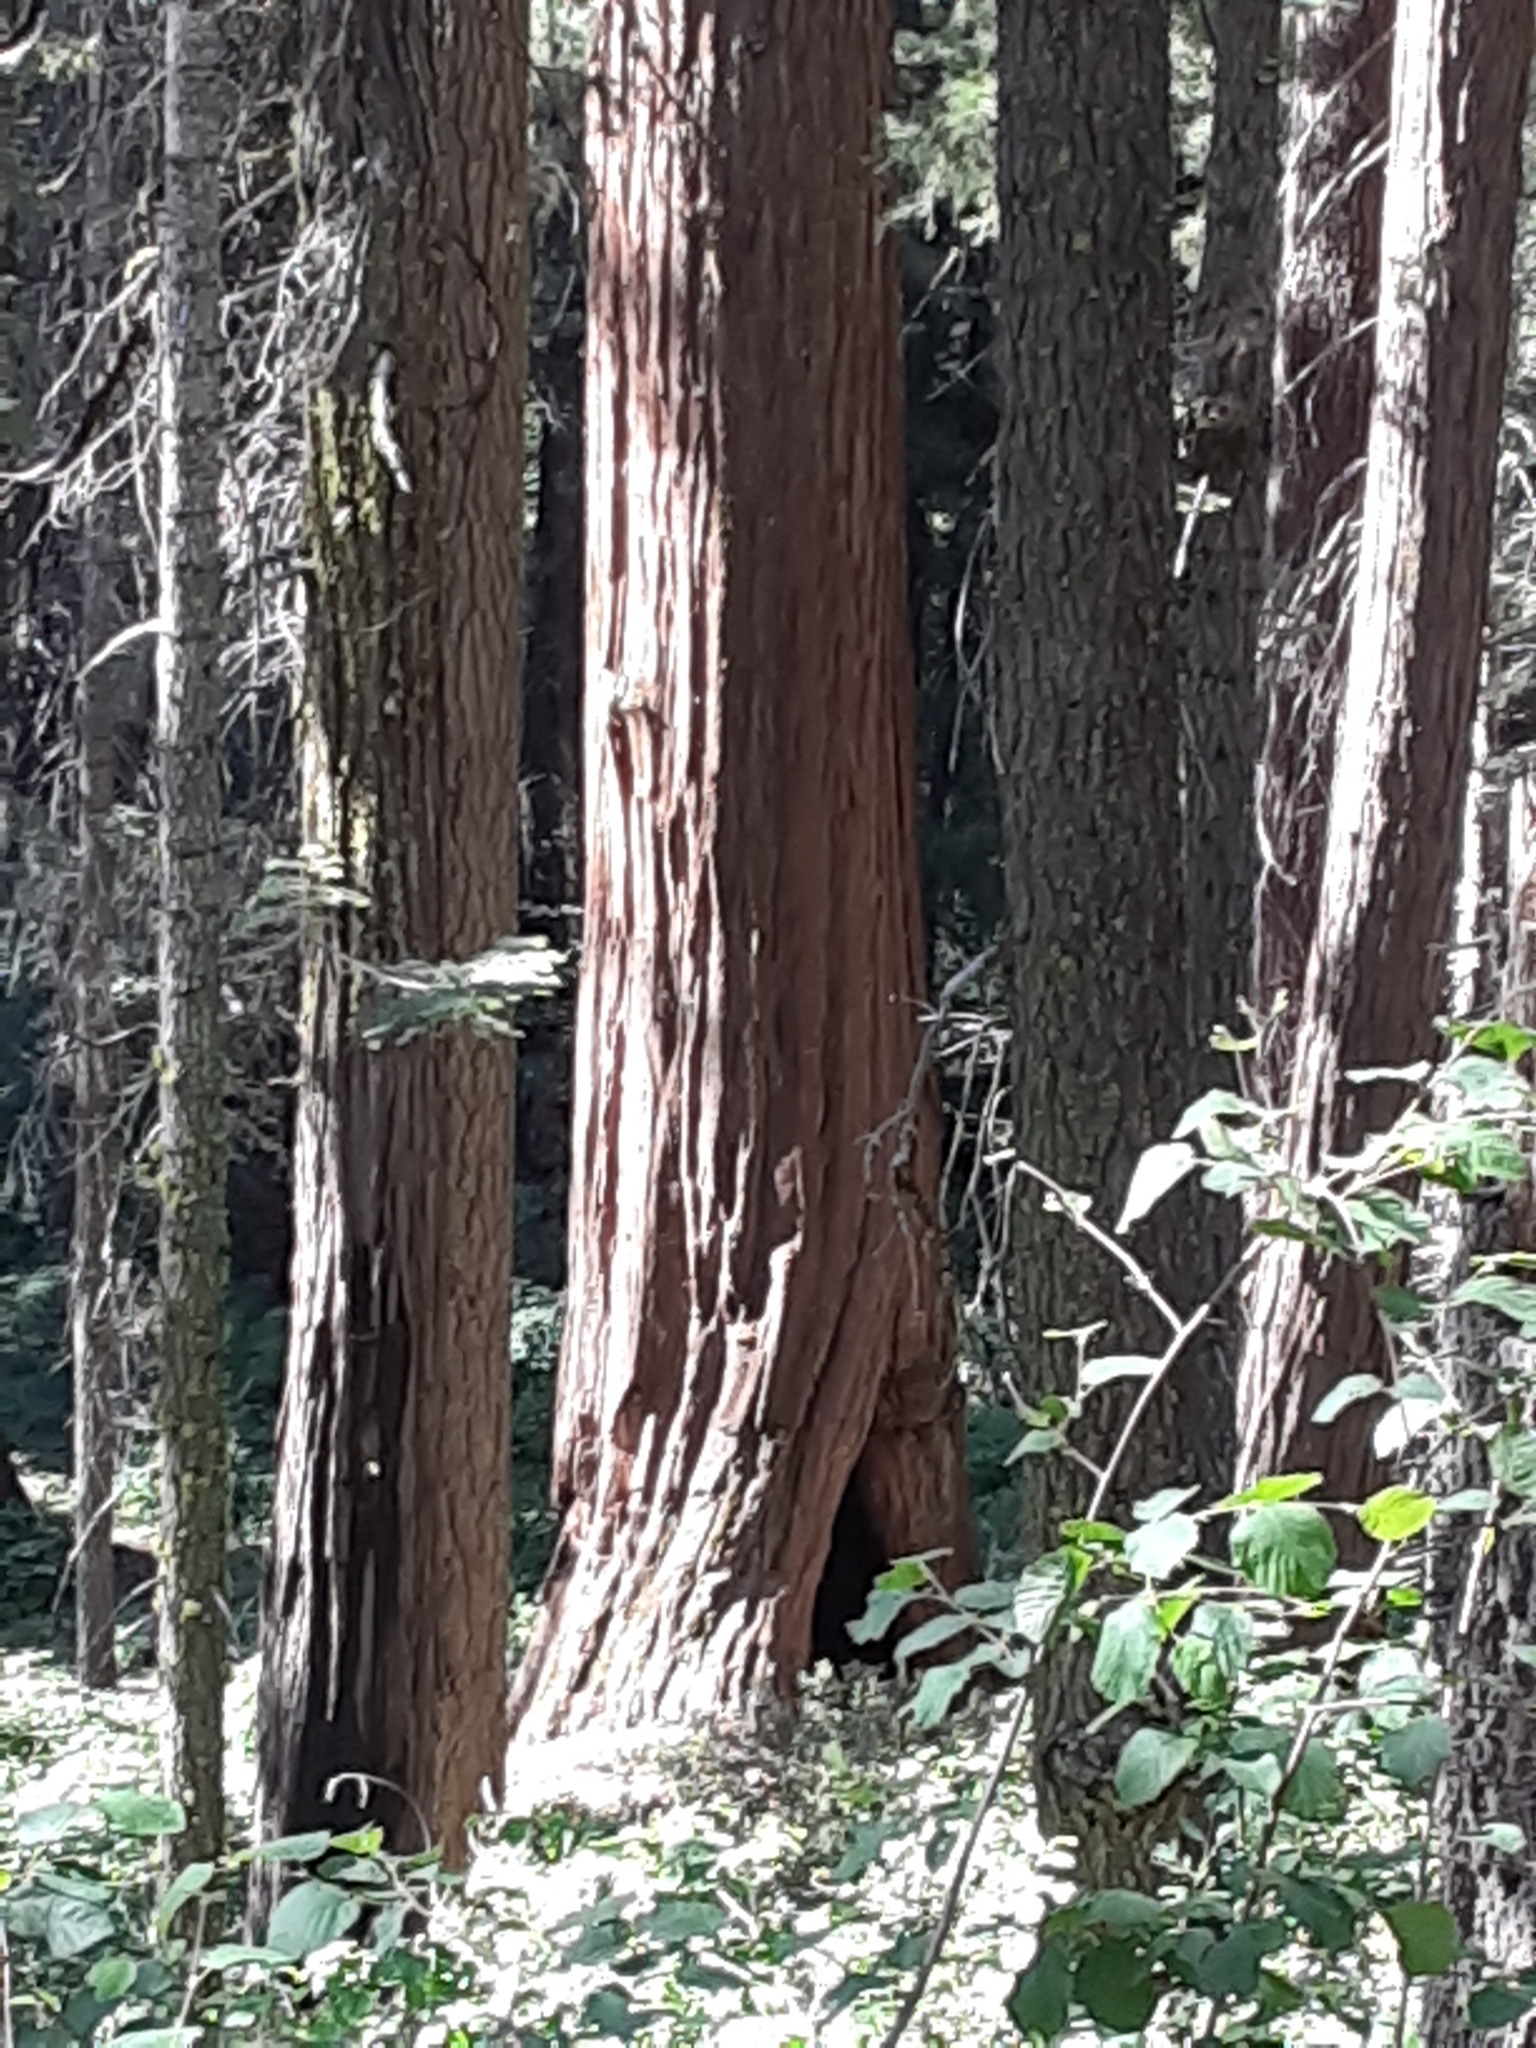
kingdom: Plantae
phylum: Tracheophyta
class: Pinopsida
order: Pinales
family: Cupressaceae
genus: Sequoiadendron
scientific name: Sequoiadendron giganteum
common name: Wellingtonia
